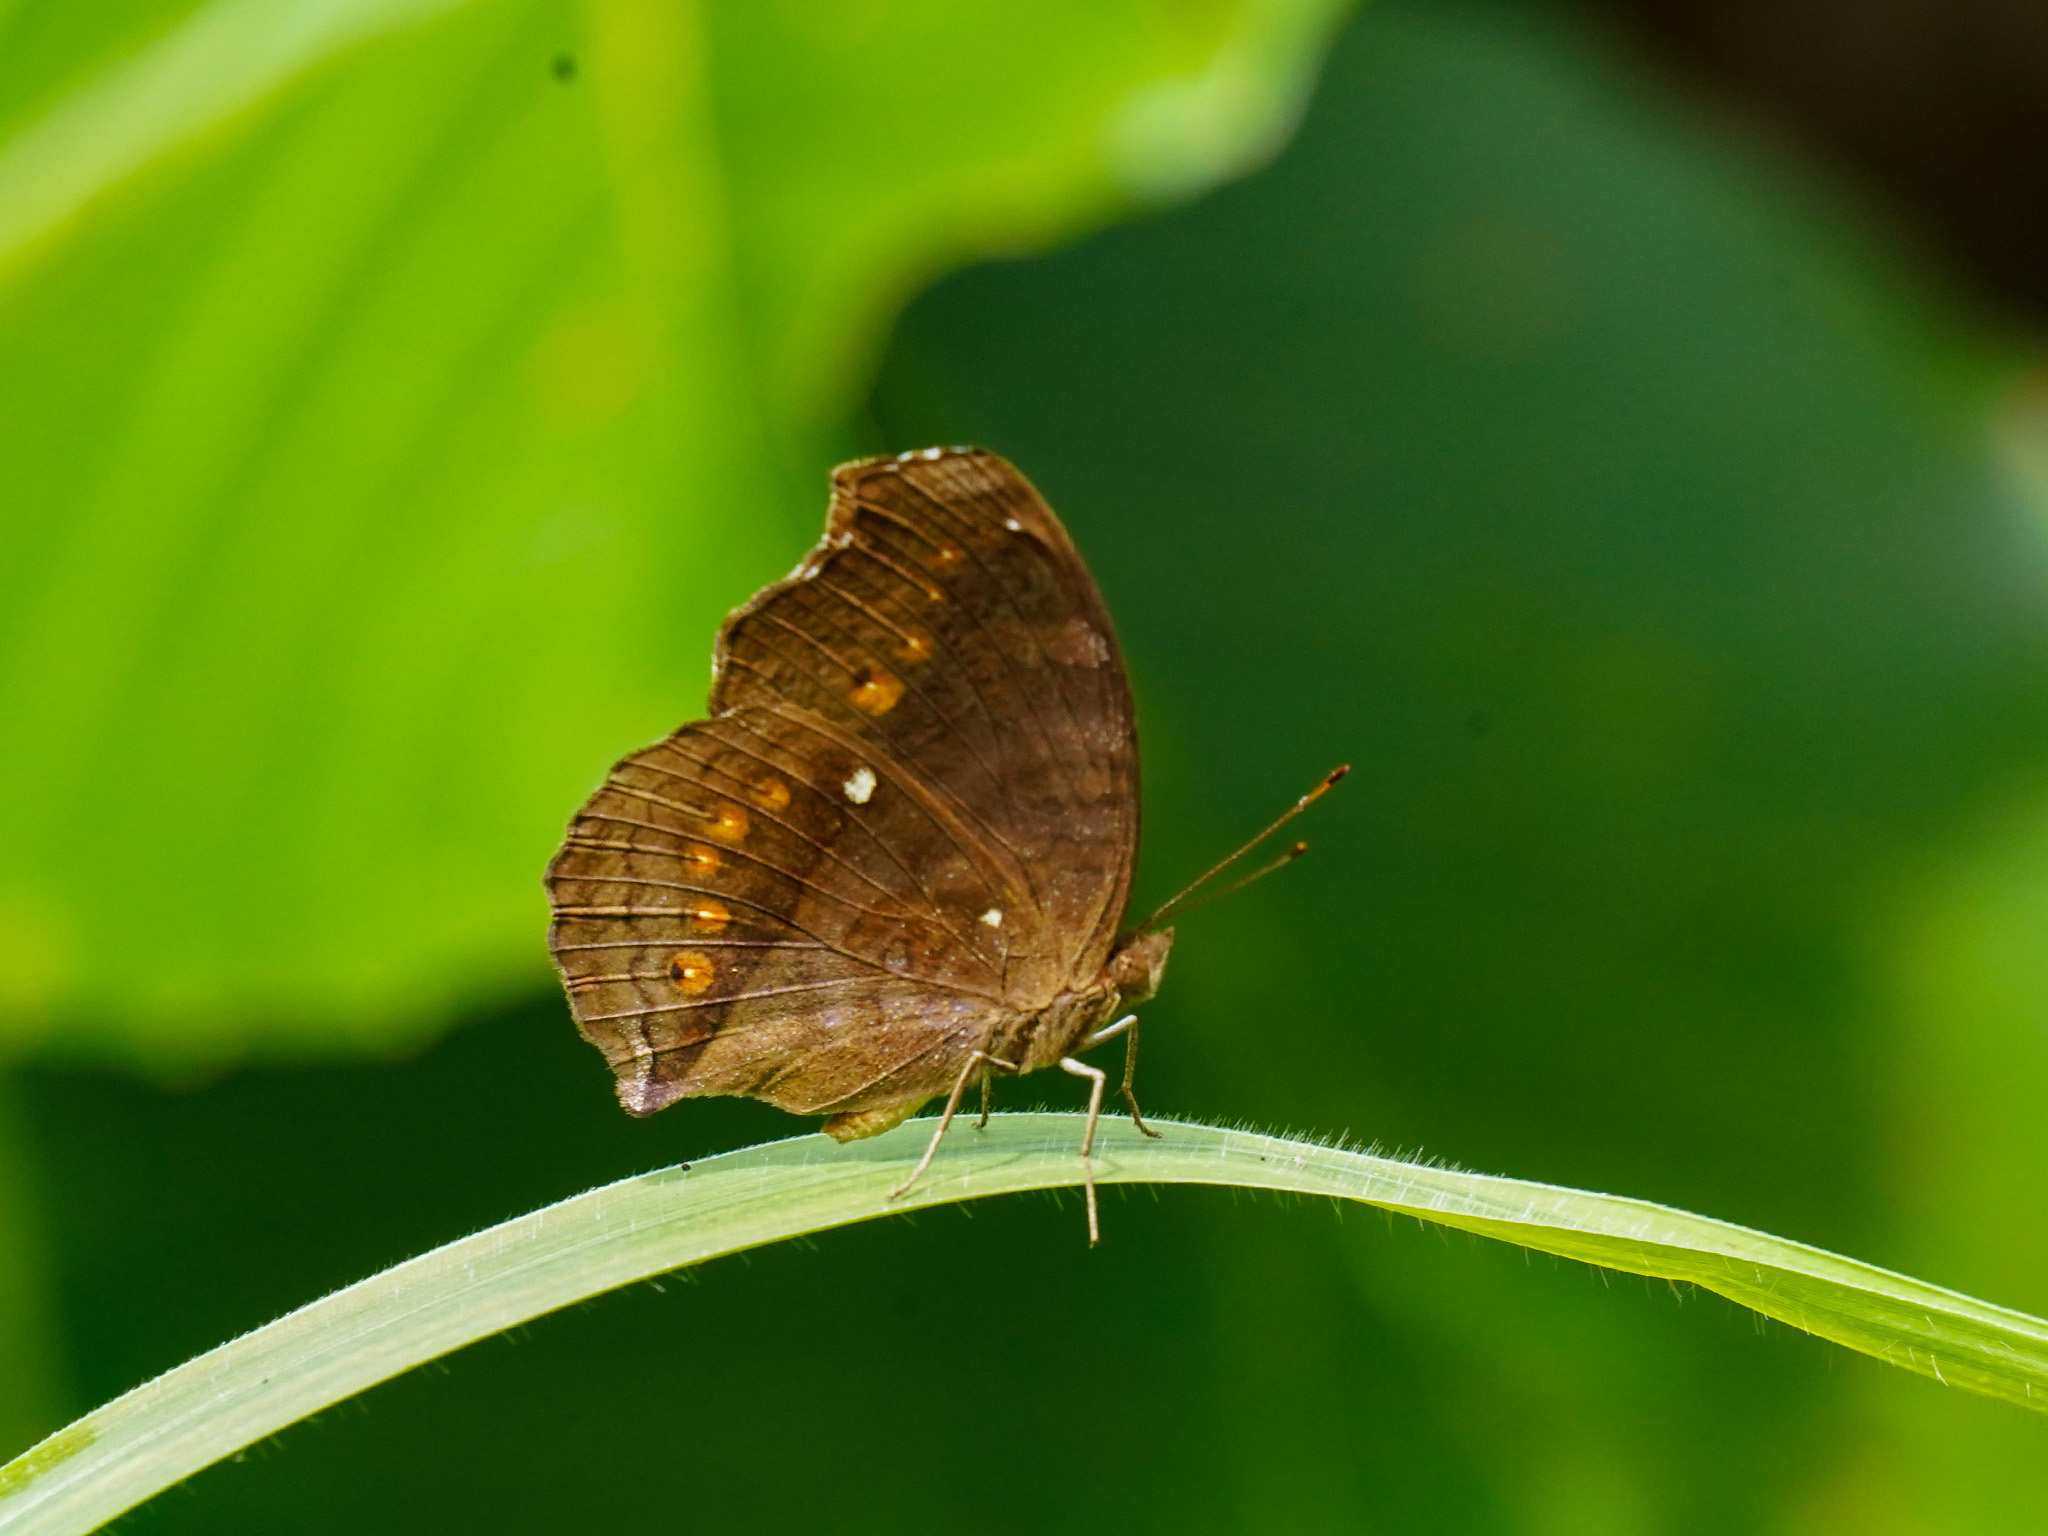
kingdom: Animalia
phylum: Arthropoda
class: Insecta
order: Lepidoptera
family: Nymphalidae
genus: Junonia
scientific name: Junonia hedonia
